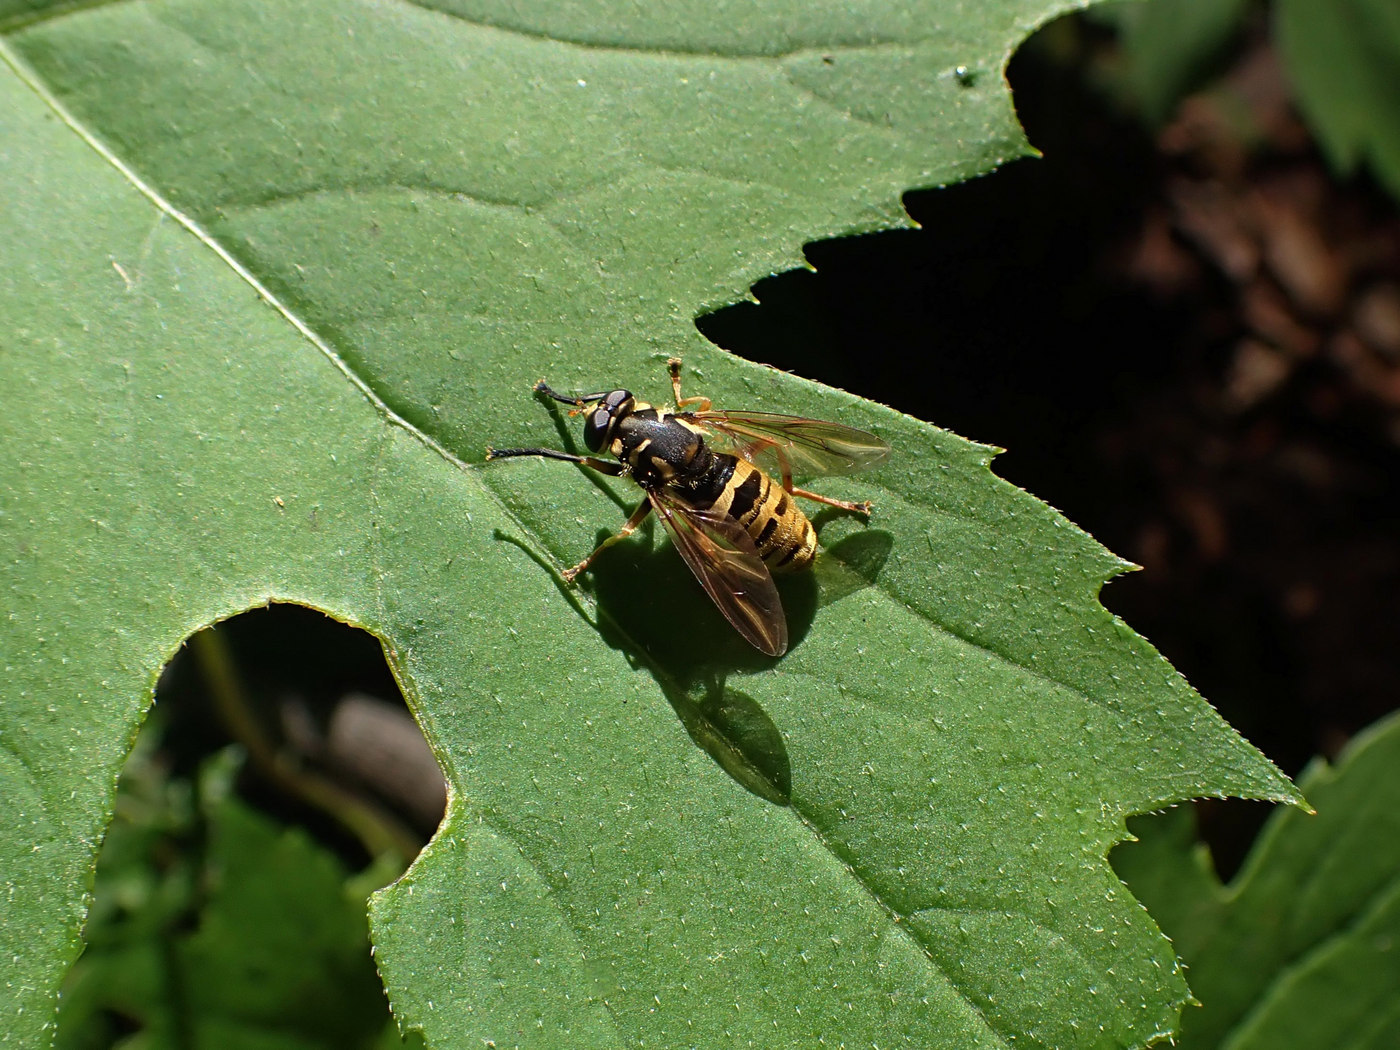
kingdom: Animalia
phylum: Arthropoda
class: Insecta
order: Diptera
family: Syrphidae
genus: Temnostoma
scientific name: Temnostoma excentricum
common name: Black-spotted falsehorn
